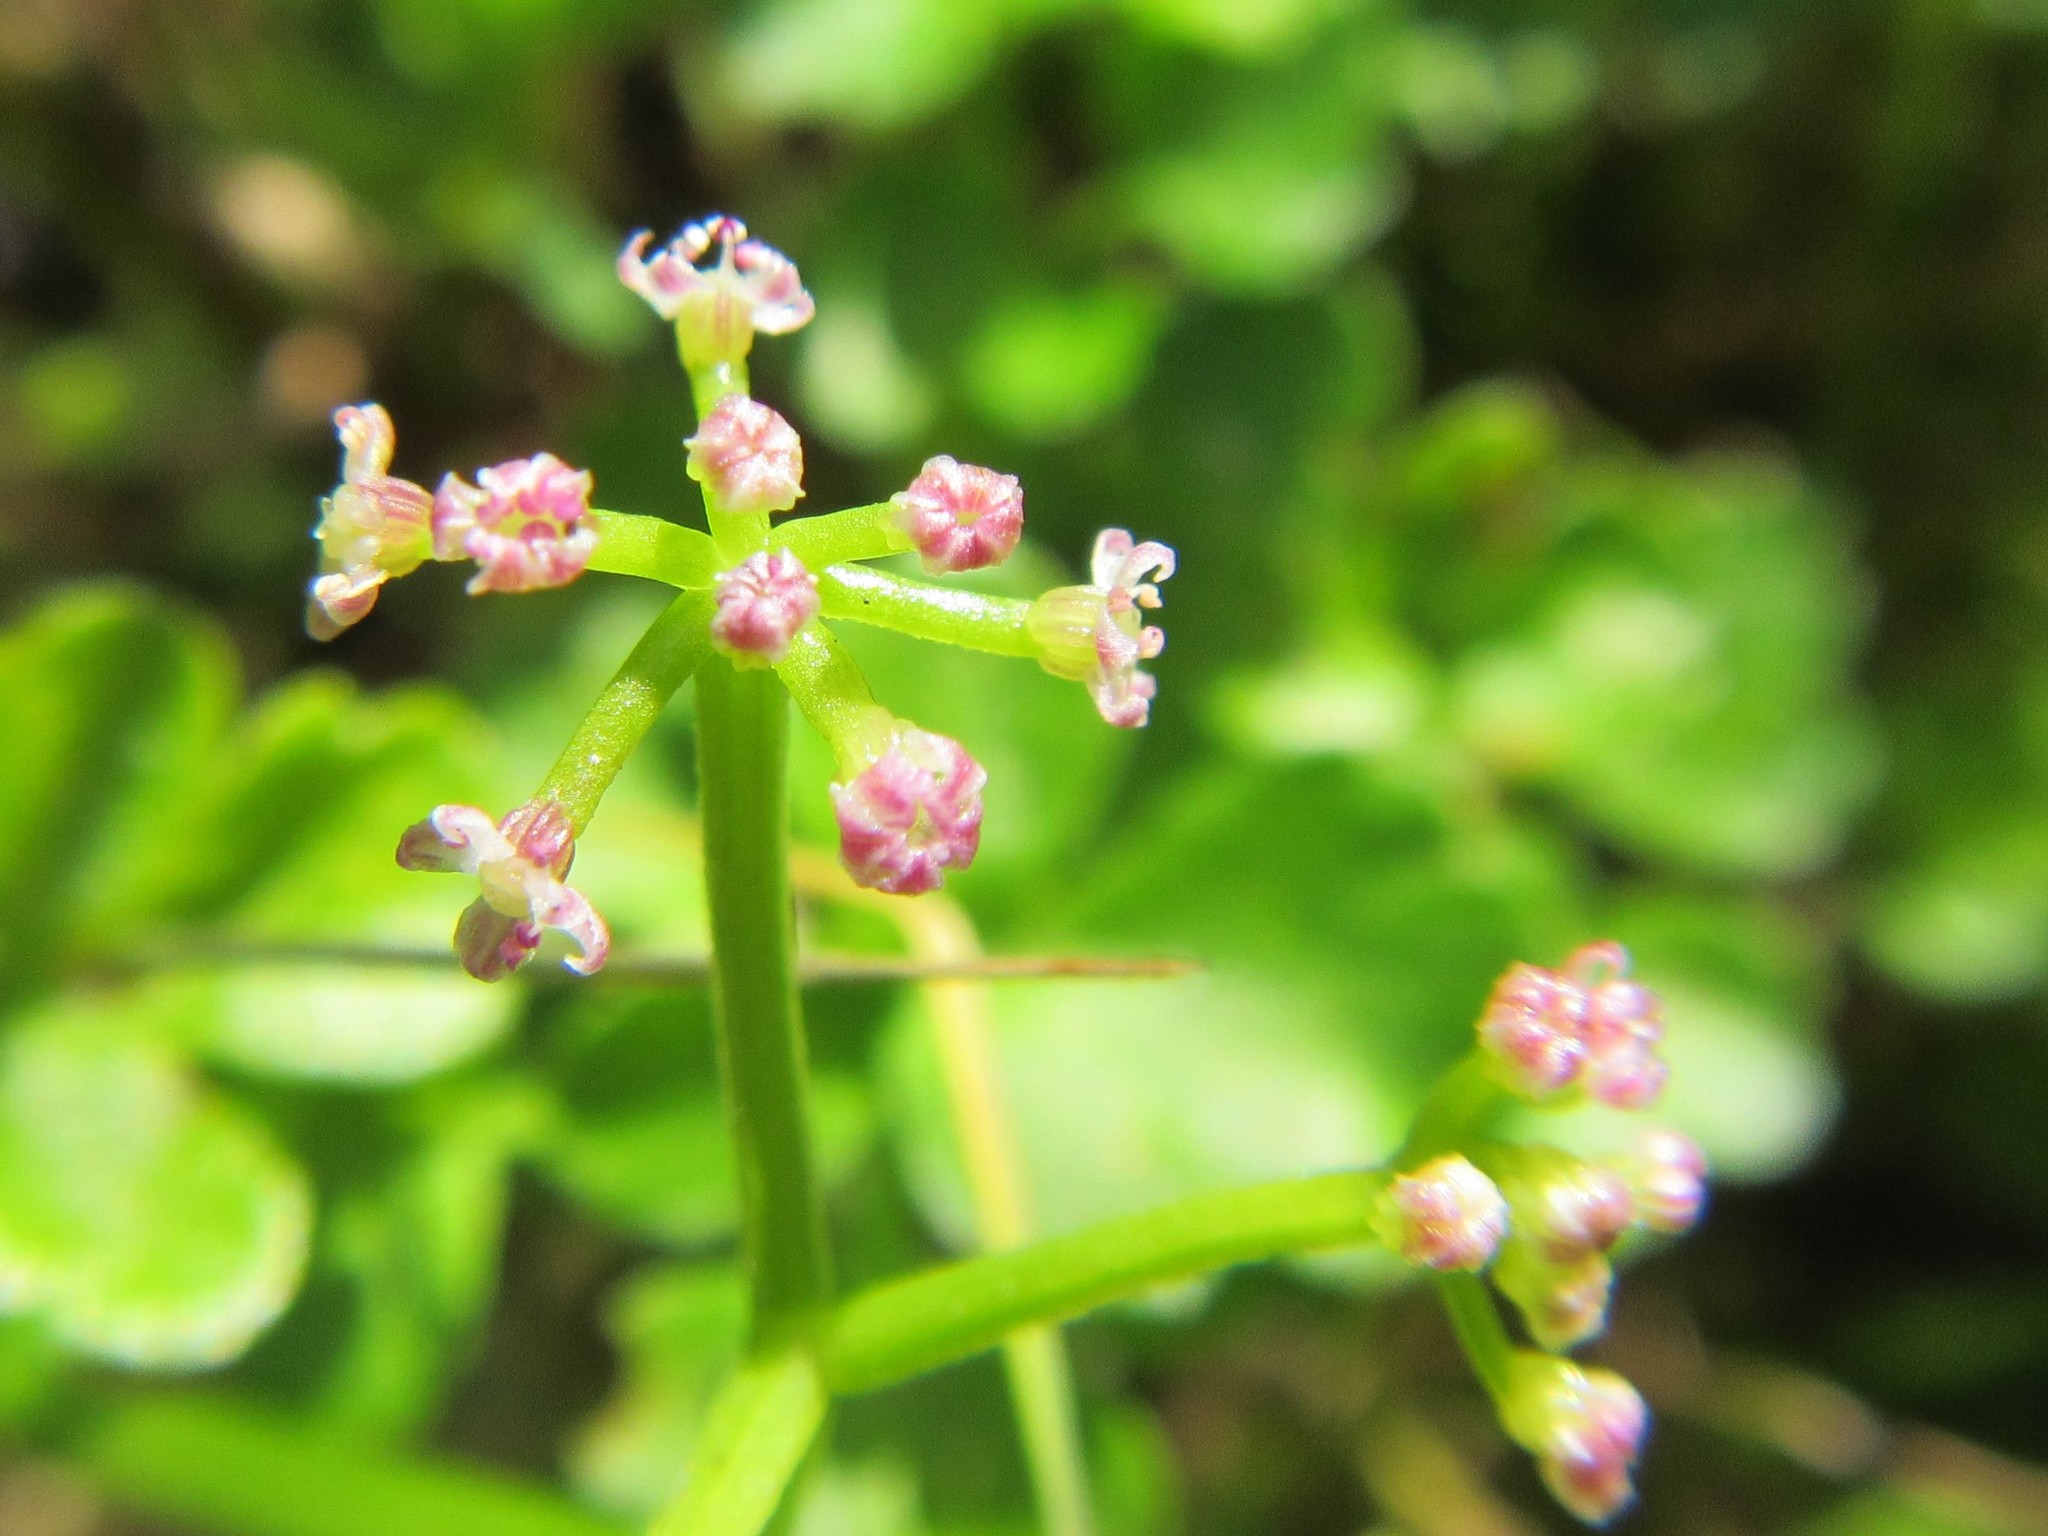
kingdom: Plantae
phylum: Tracheophyta
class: Magnoliopsida
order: Apiales
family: Apiaceae
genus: Apium
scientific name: Apium decumbens
